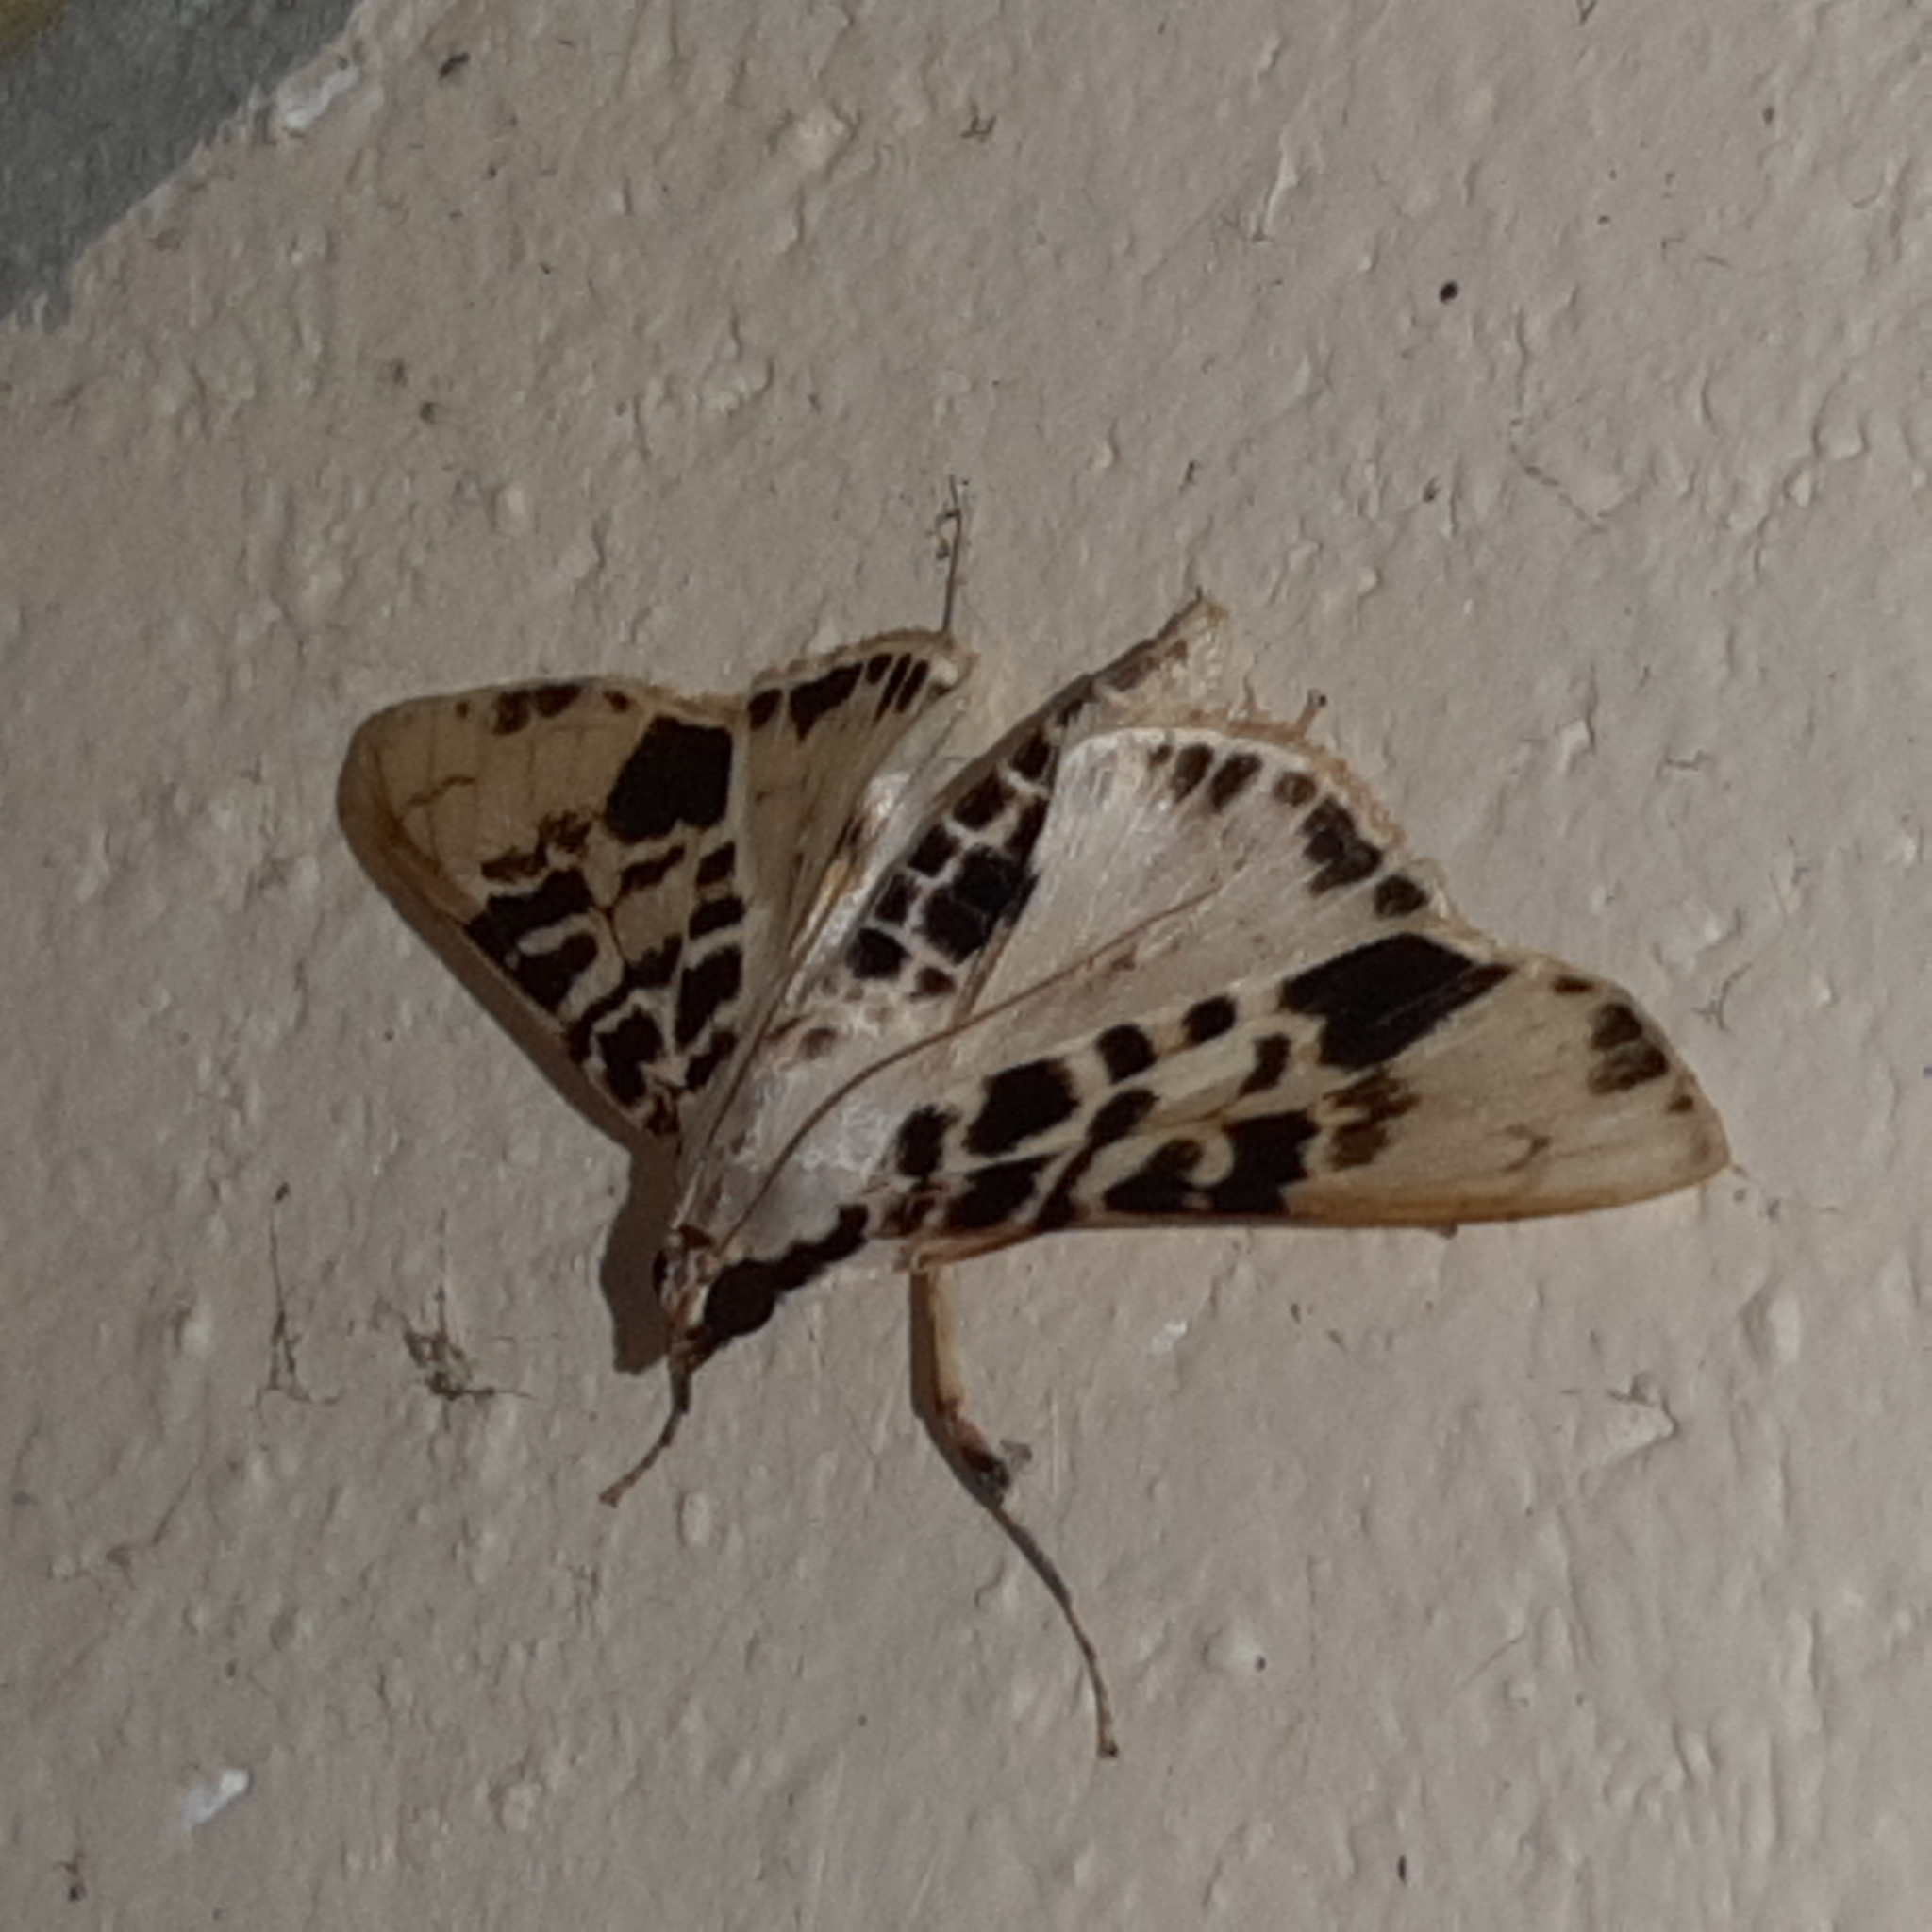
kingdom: Animalia
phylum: Arthropoda
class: Insecta
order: Lepidoptera
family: Crambidae
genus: Azochis
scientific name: Azochis pieralis
